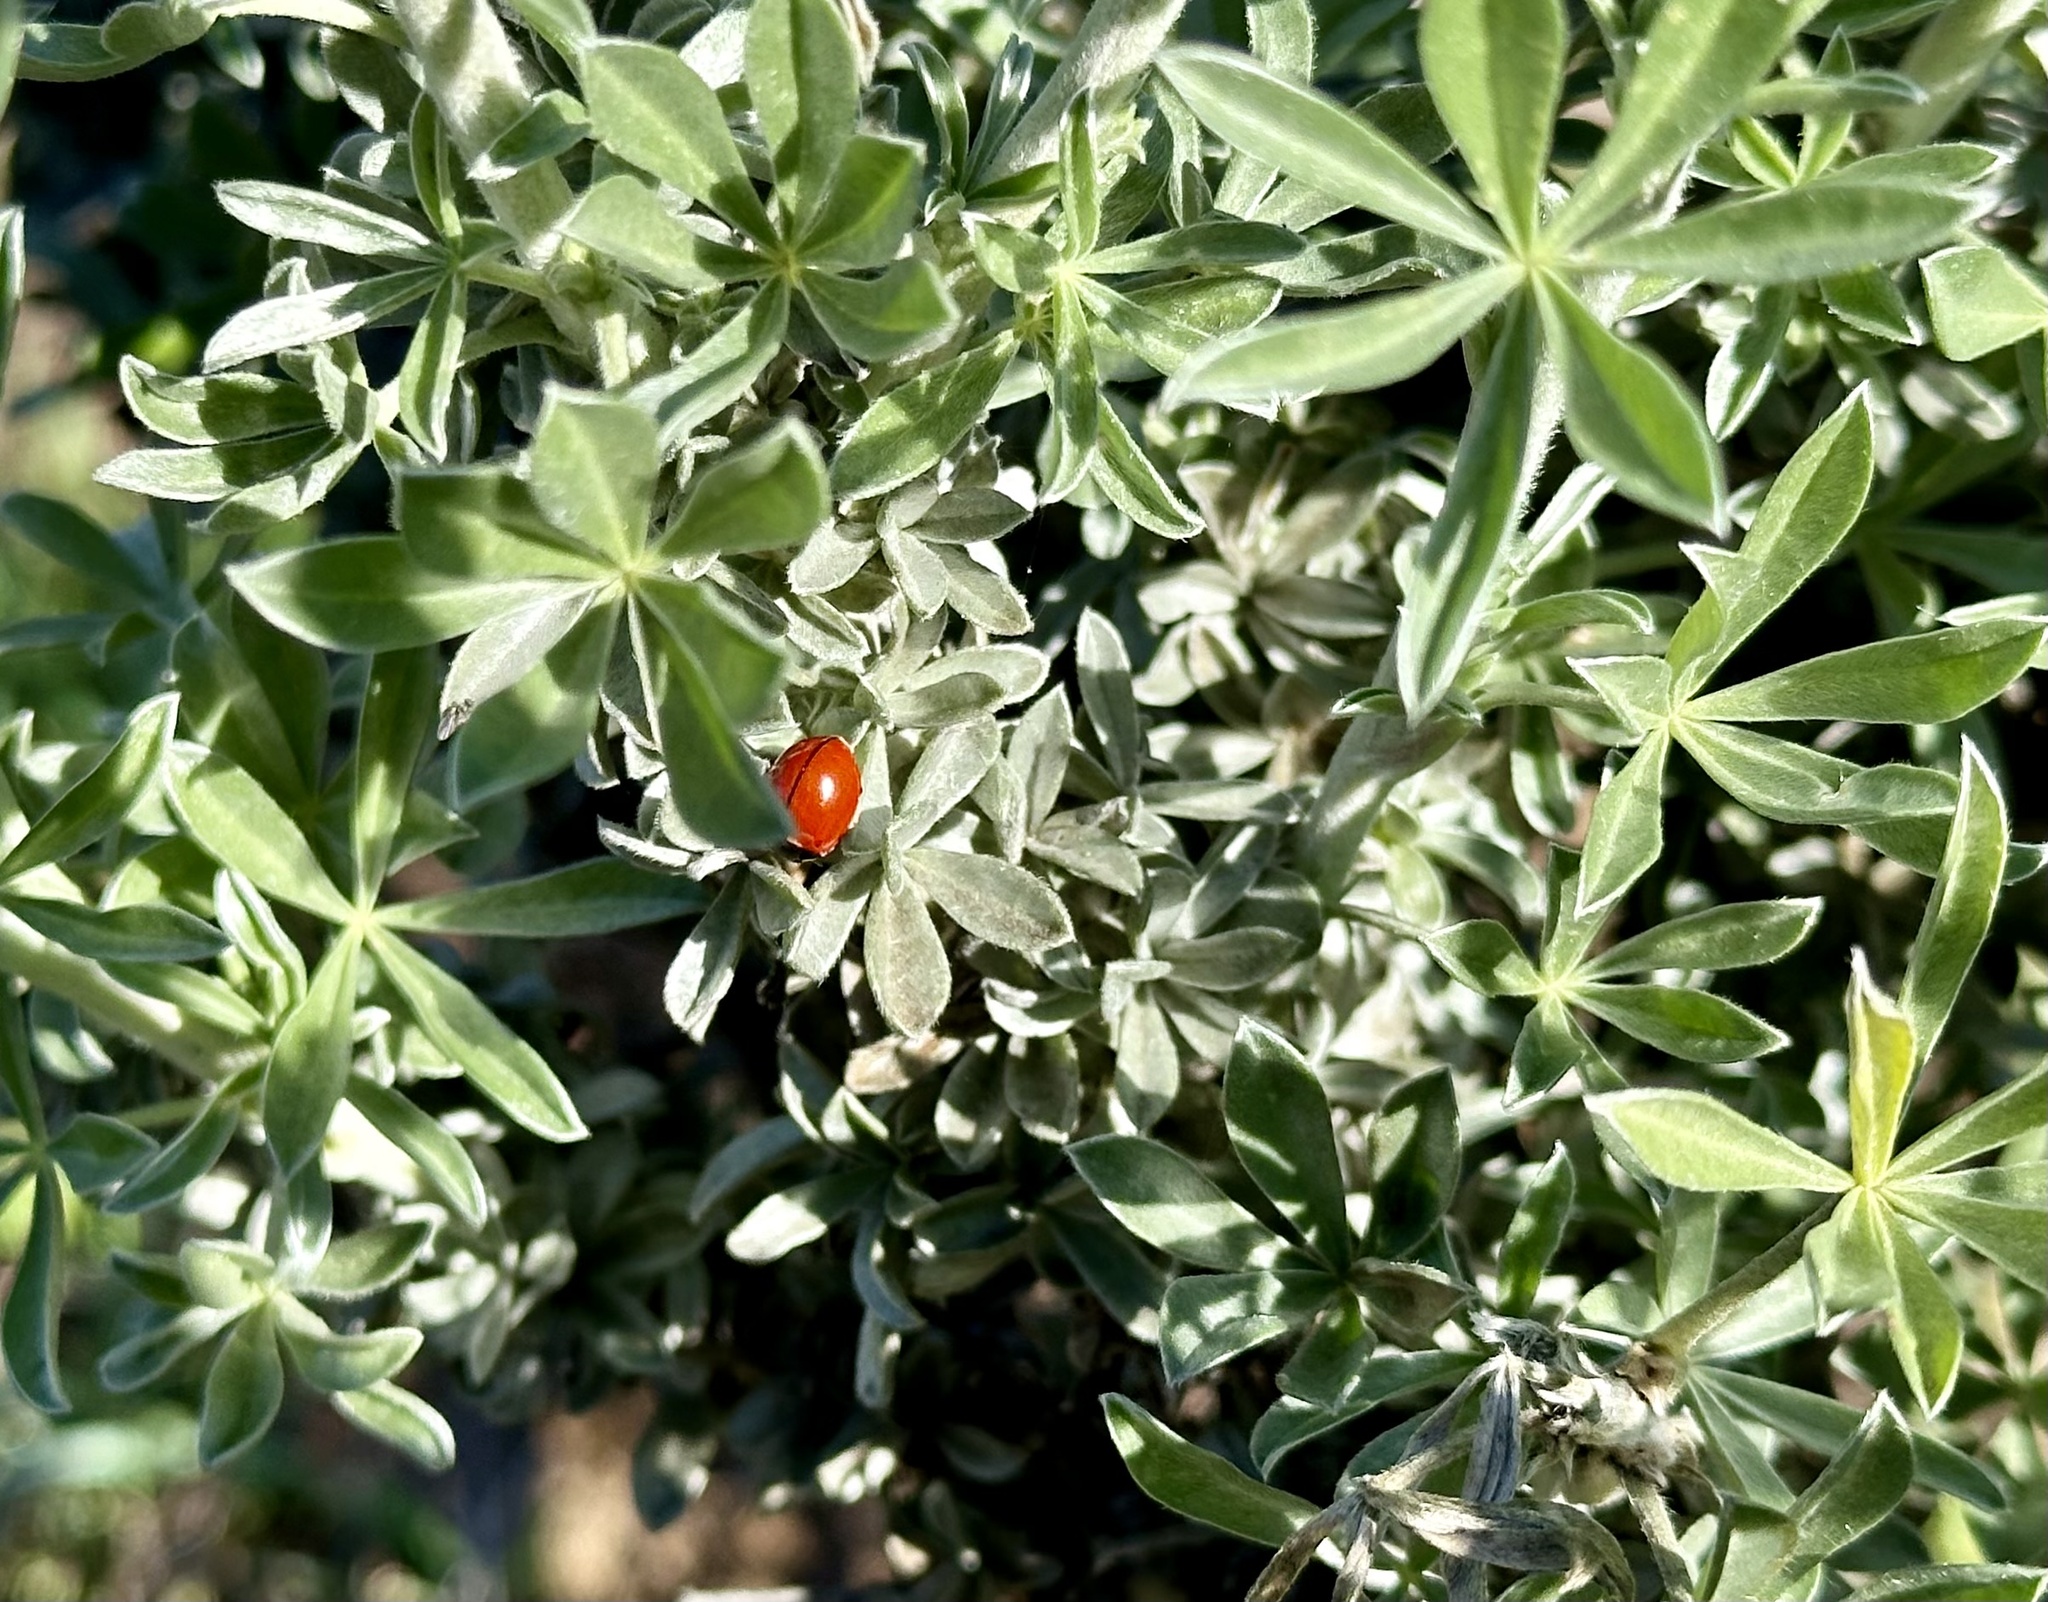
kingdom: Animalia
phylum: Arthropoda
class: Insecta
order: Coleoptera
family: Coccinellidae
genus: Coccinella
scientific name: Coccinella californica
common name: Lady beetle
